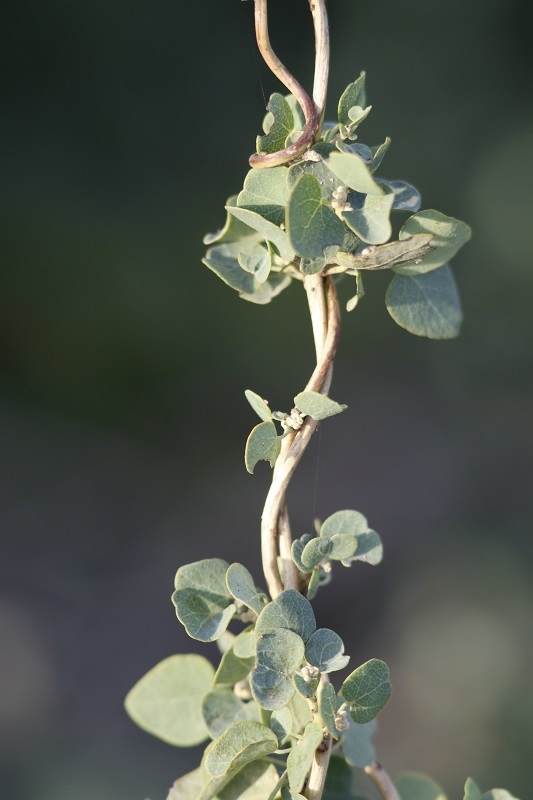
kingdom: Plantae
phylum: Tracheophyta
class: Magnoliopsida
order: Ranunculales
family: Menispermaceae
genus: Cissampelos
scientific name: Cissampelos capensis
